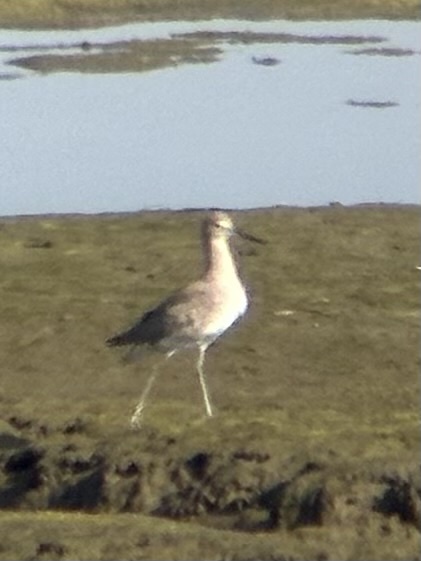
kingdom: Animalia
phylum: Chordata
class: Aves
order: Charadriiformes
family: Scolopacidae
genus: Tringa
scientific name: Tringa semipalmata
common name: Willet
